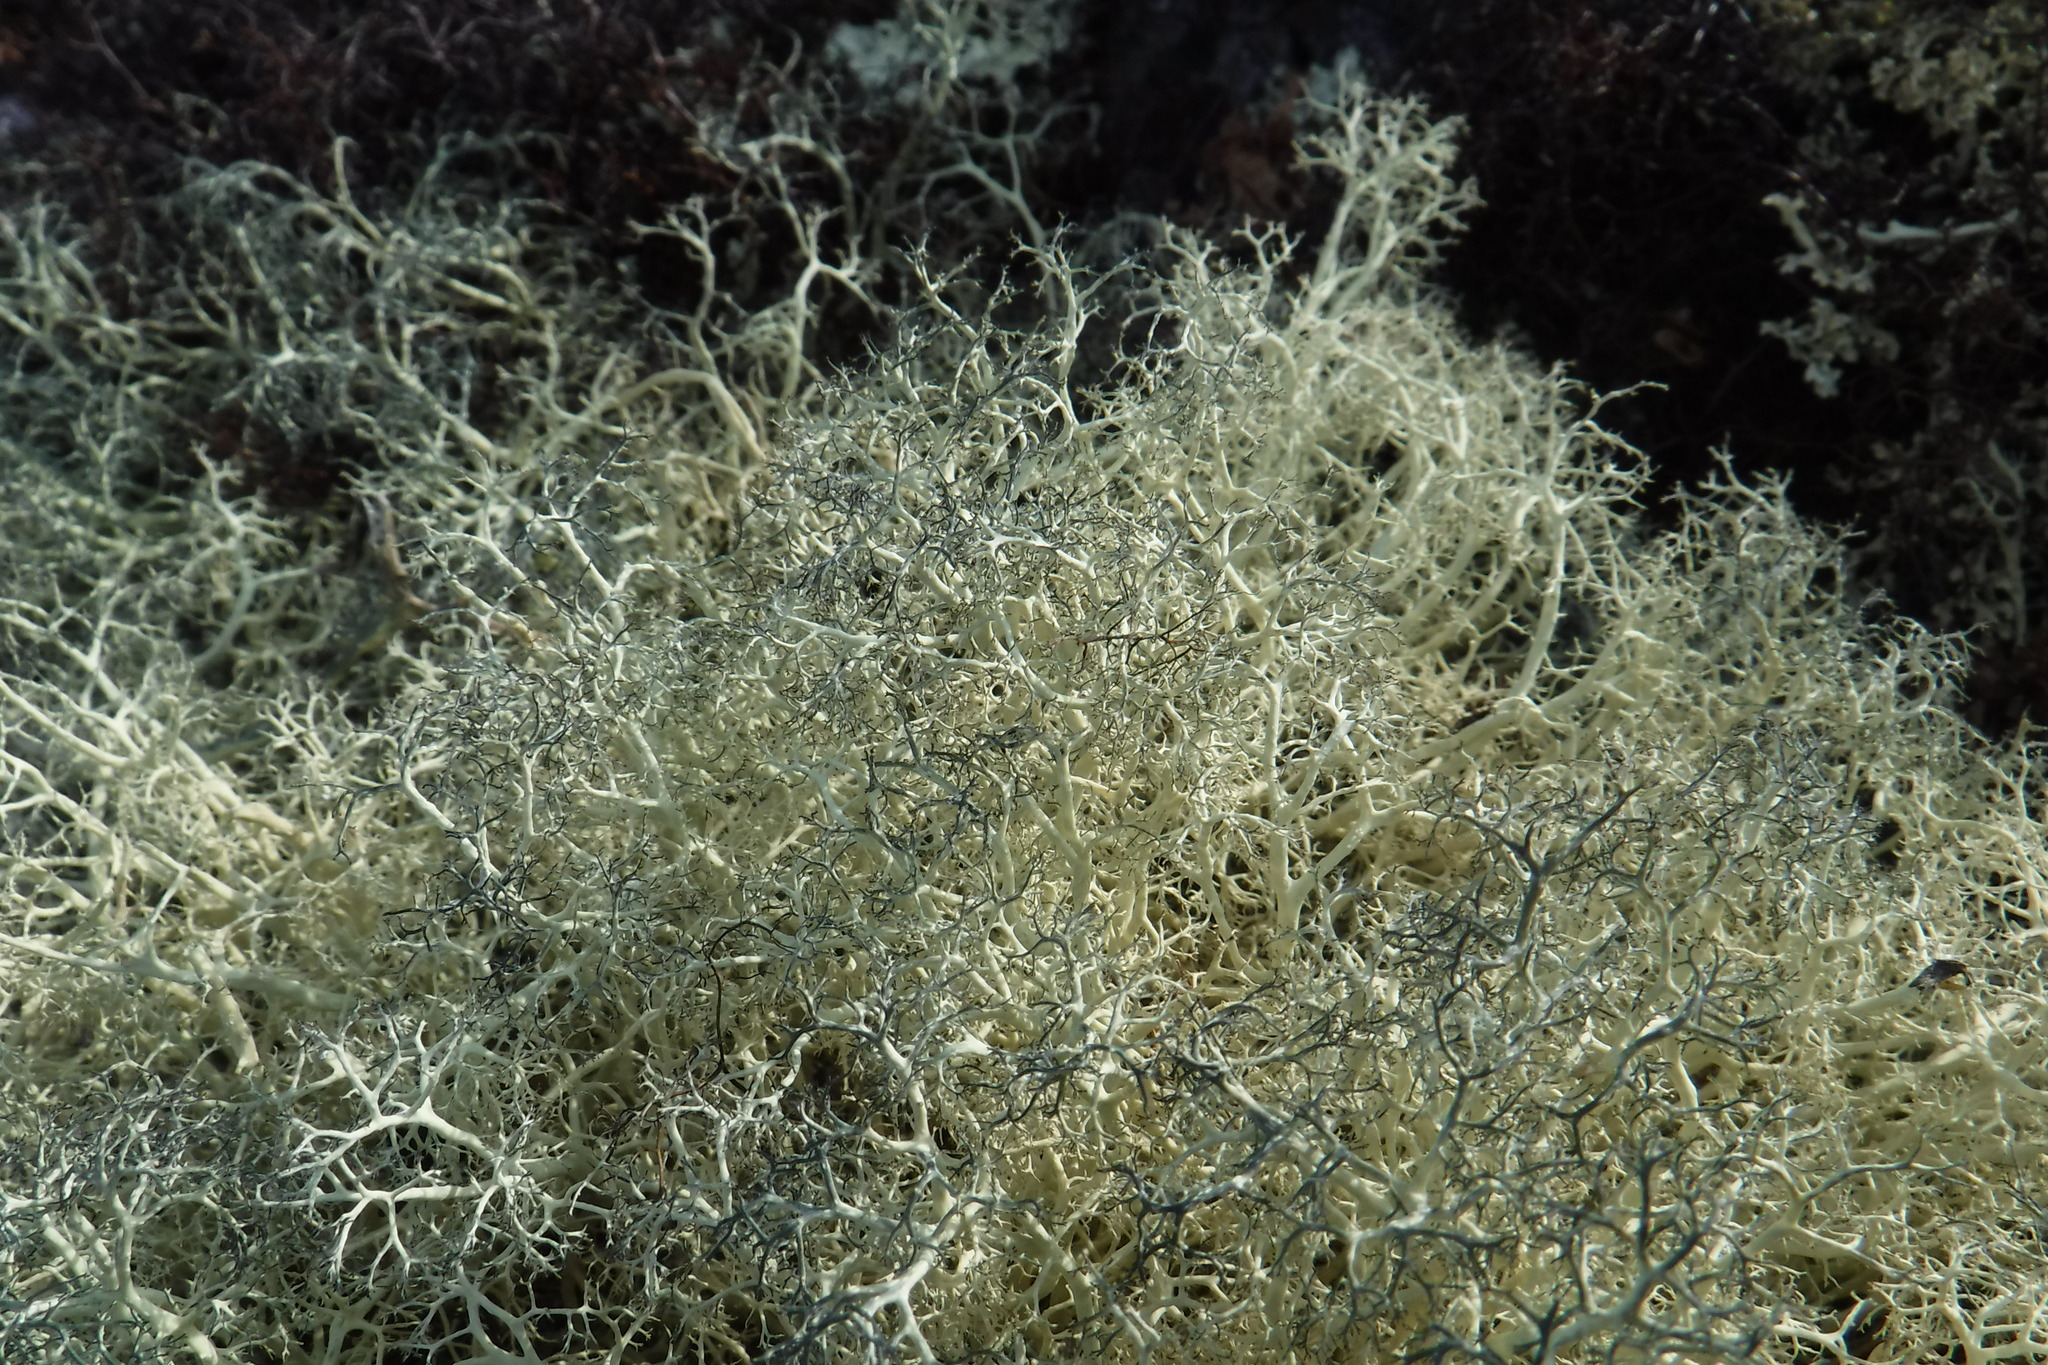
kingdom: Fungi
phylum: Ascomycota
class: Lecanoromycetes
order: Lecanorales
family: Parmeliaceae
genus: Alectoria
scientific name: Alectoria ochroleuca
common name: Alpine sulphur-tresses
